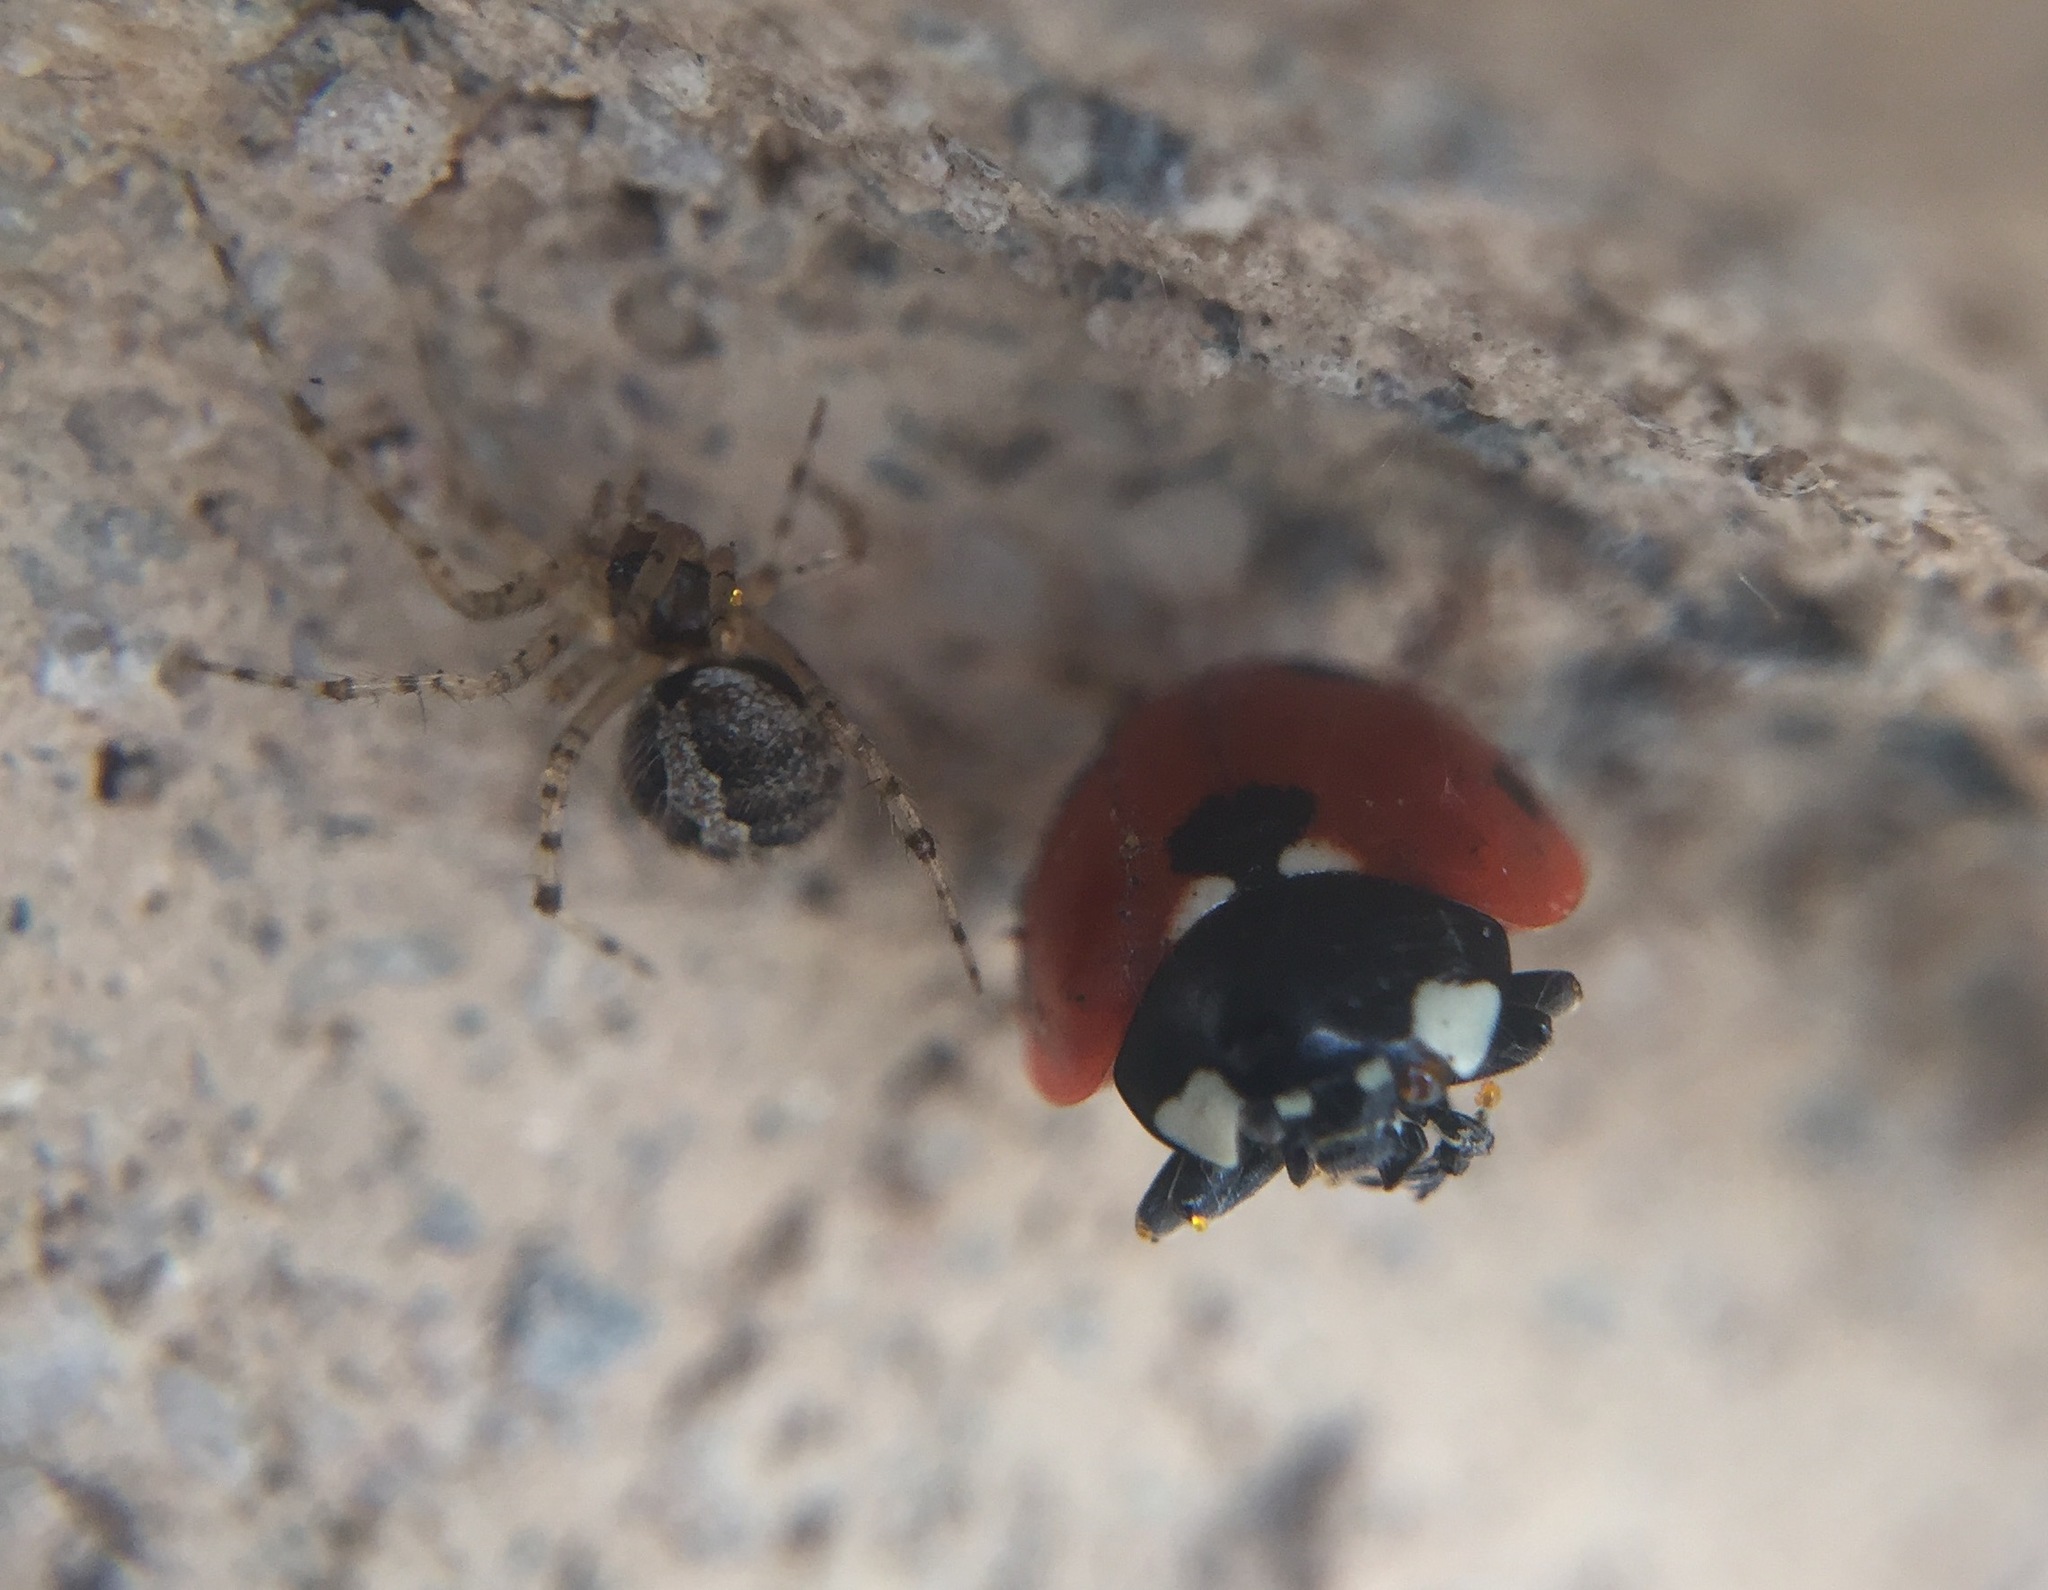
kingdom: Animalia
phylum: Arthropoda
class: Insecta
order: Coleoptera
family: Coccinellidae
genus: Coccinella
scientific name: Coccinella septempunctata
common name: Sevenspotted lady beetle
